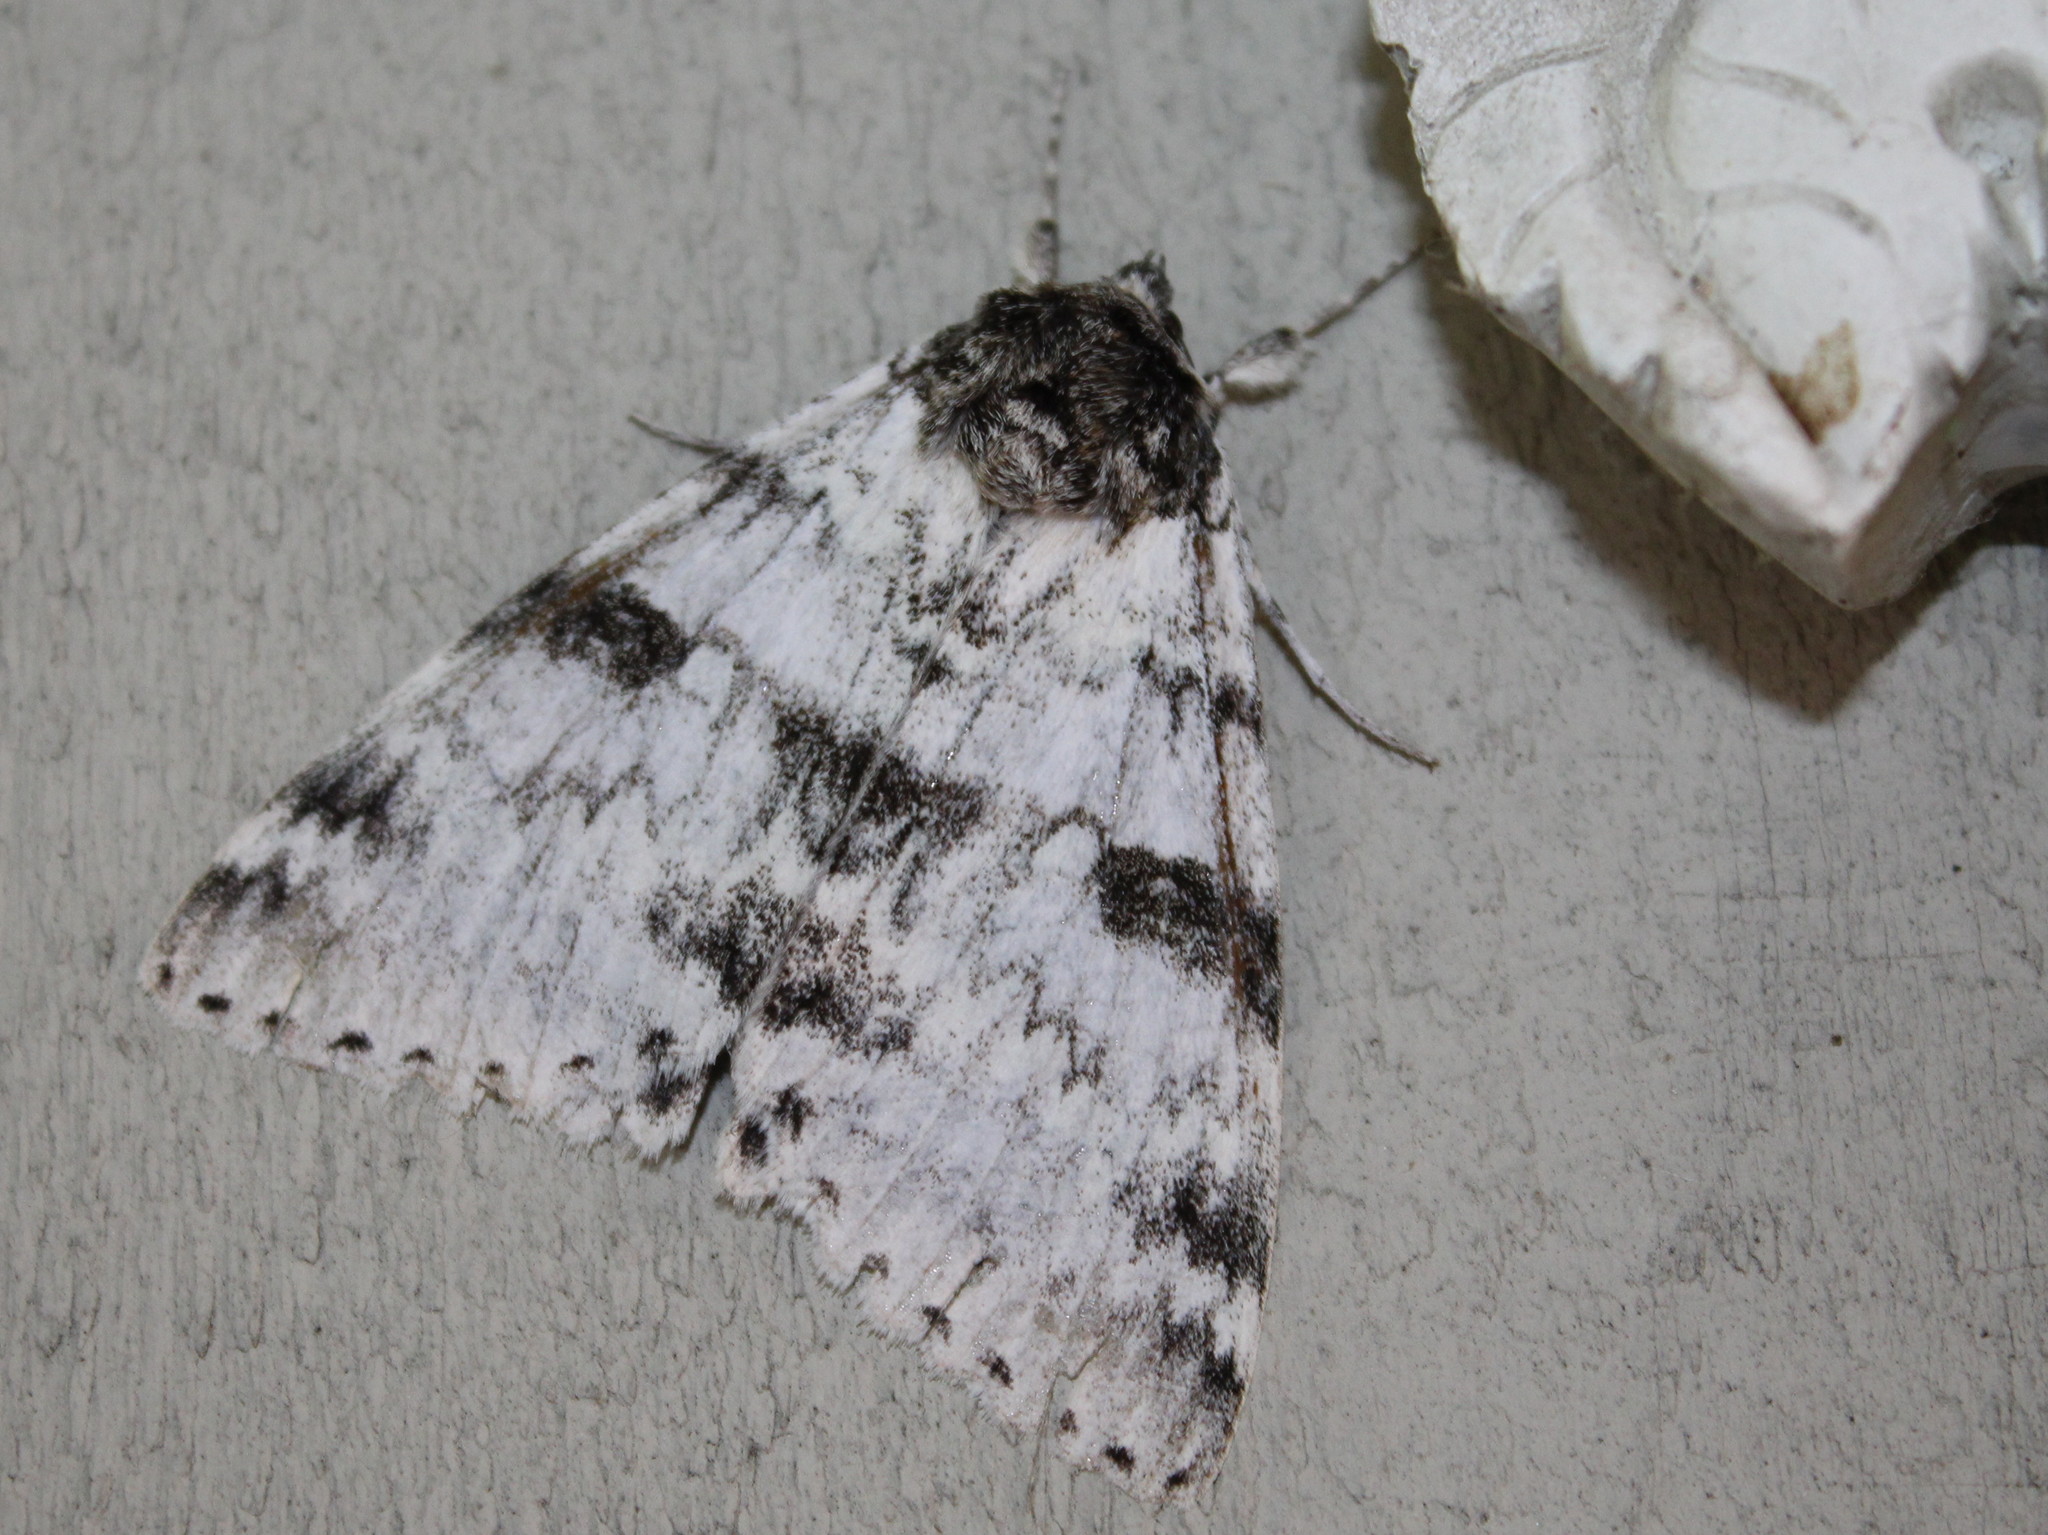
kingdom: Animalia
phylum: Arthropoda
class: Insecta
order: Lepidoptera
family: Erebidae
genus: Catocala
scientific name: Catocala relicta
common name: White underwing
